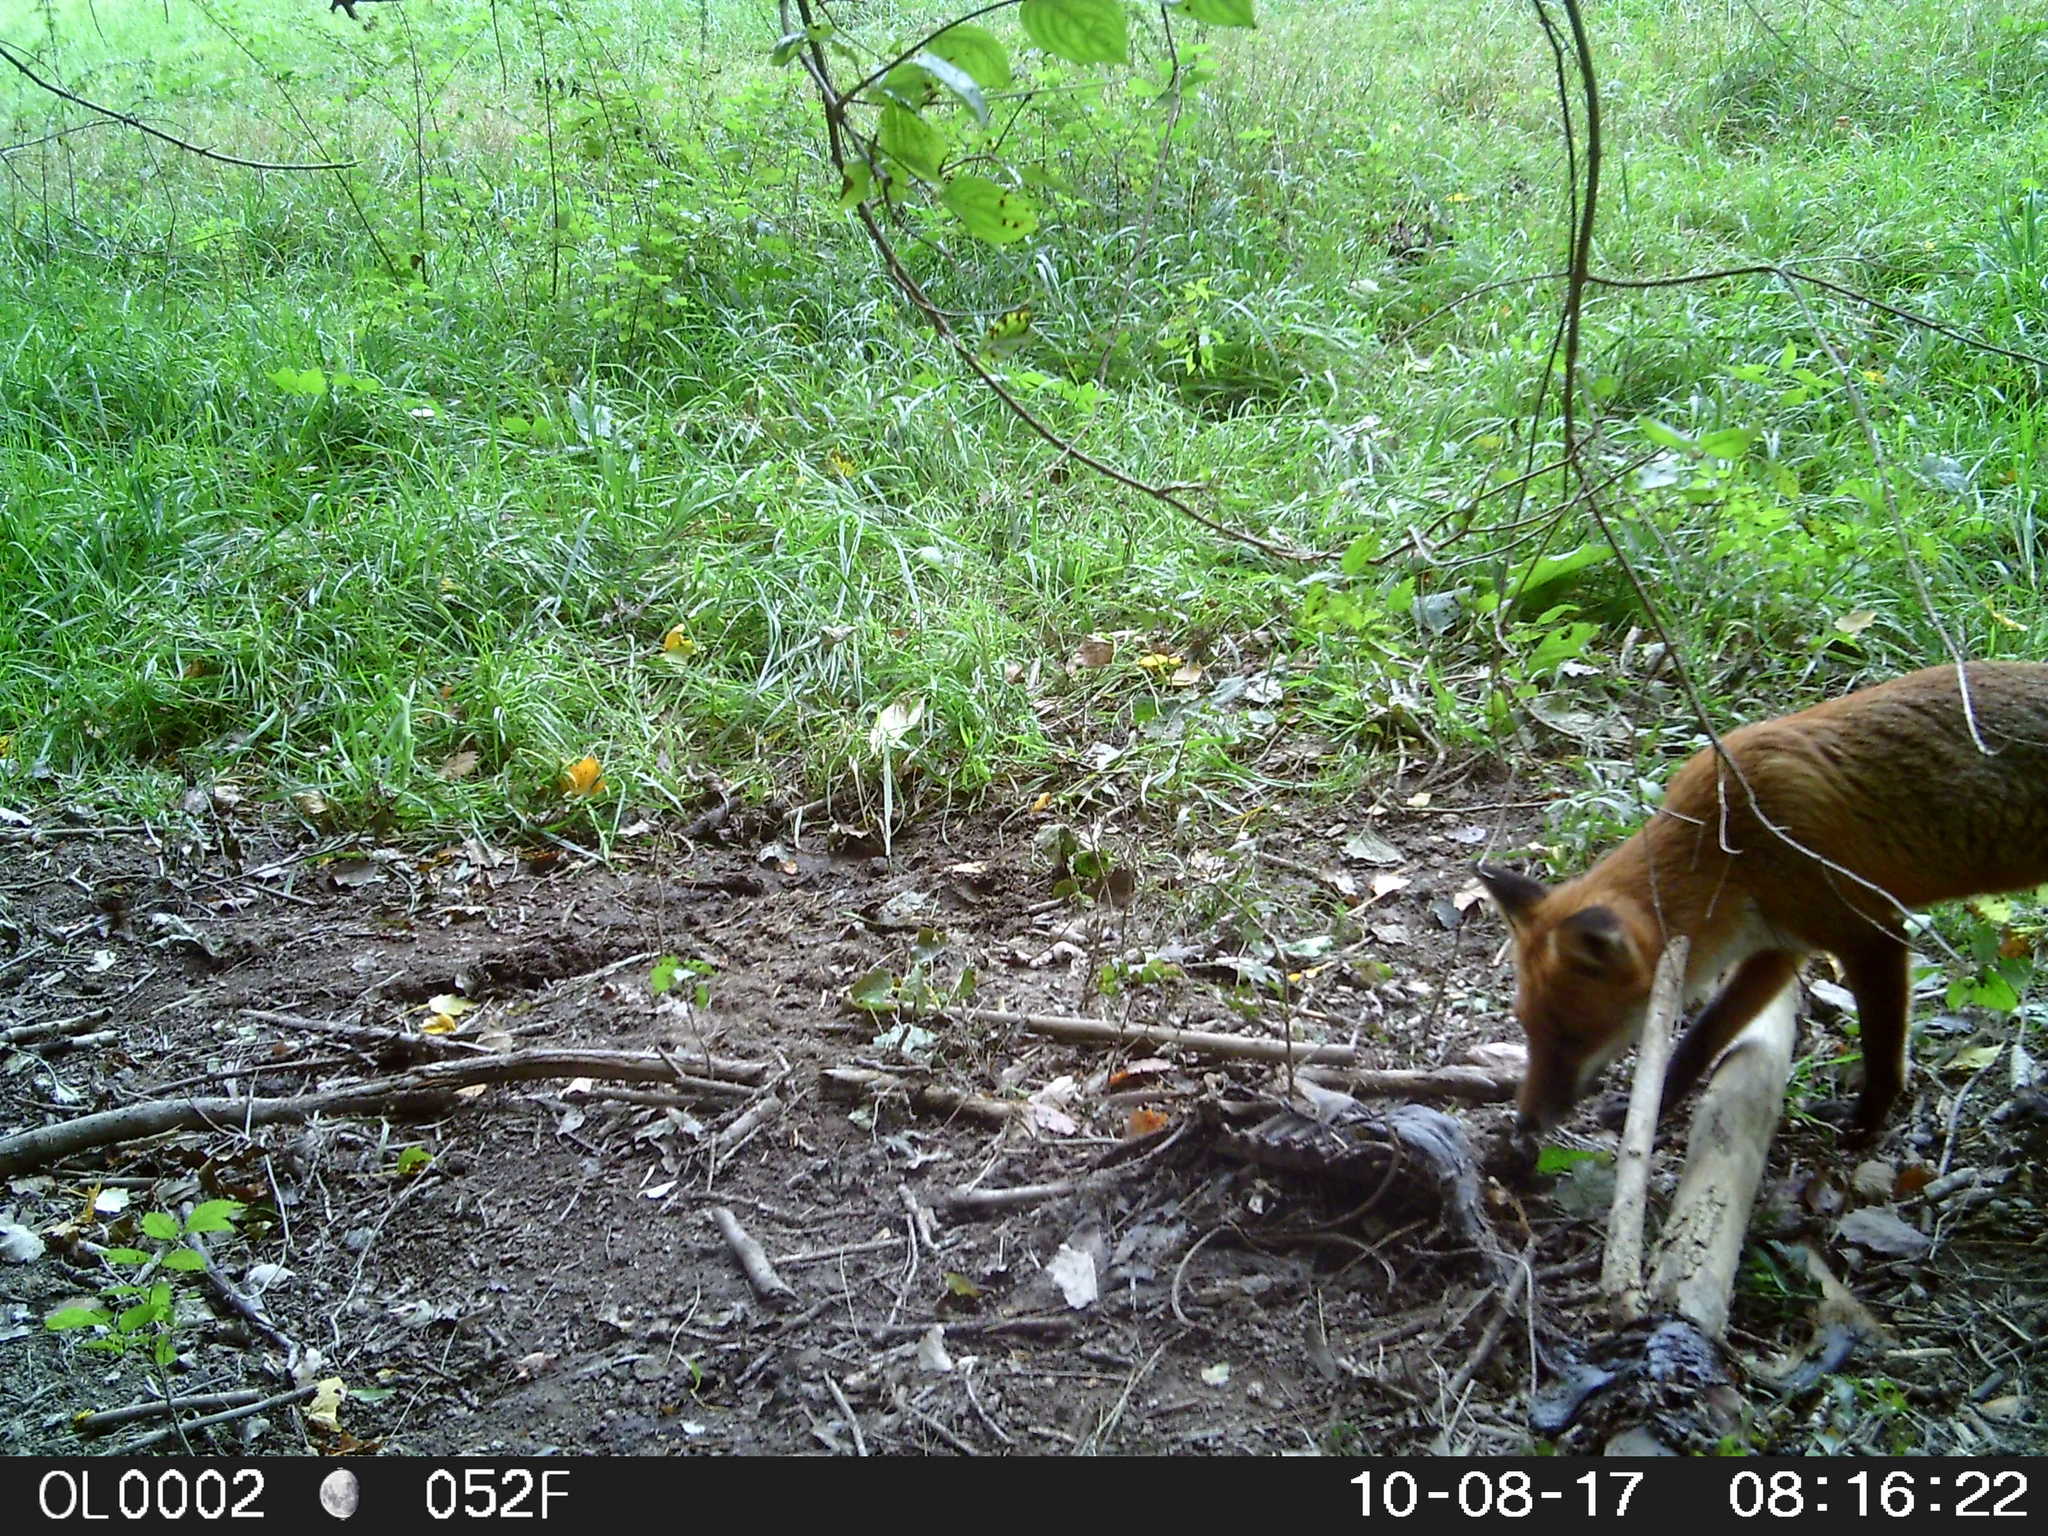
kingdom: Animalia
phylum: Chordata
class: Mammalia
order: Carnivora
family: Canidae
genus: Vulpes
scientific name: Vulpes vulpes
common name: Red fox
